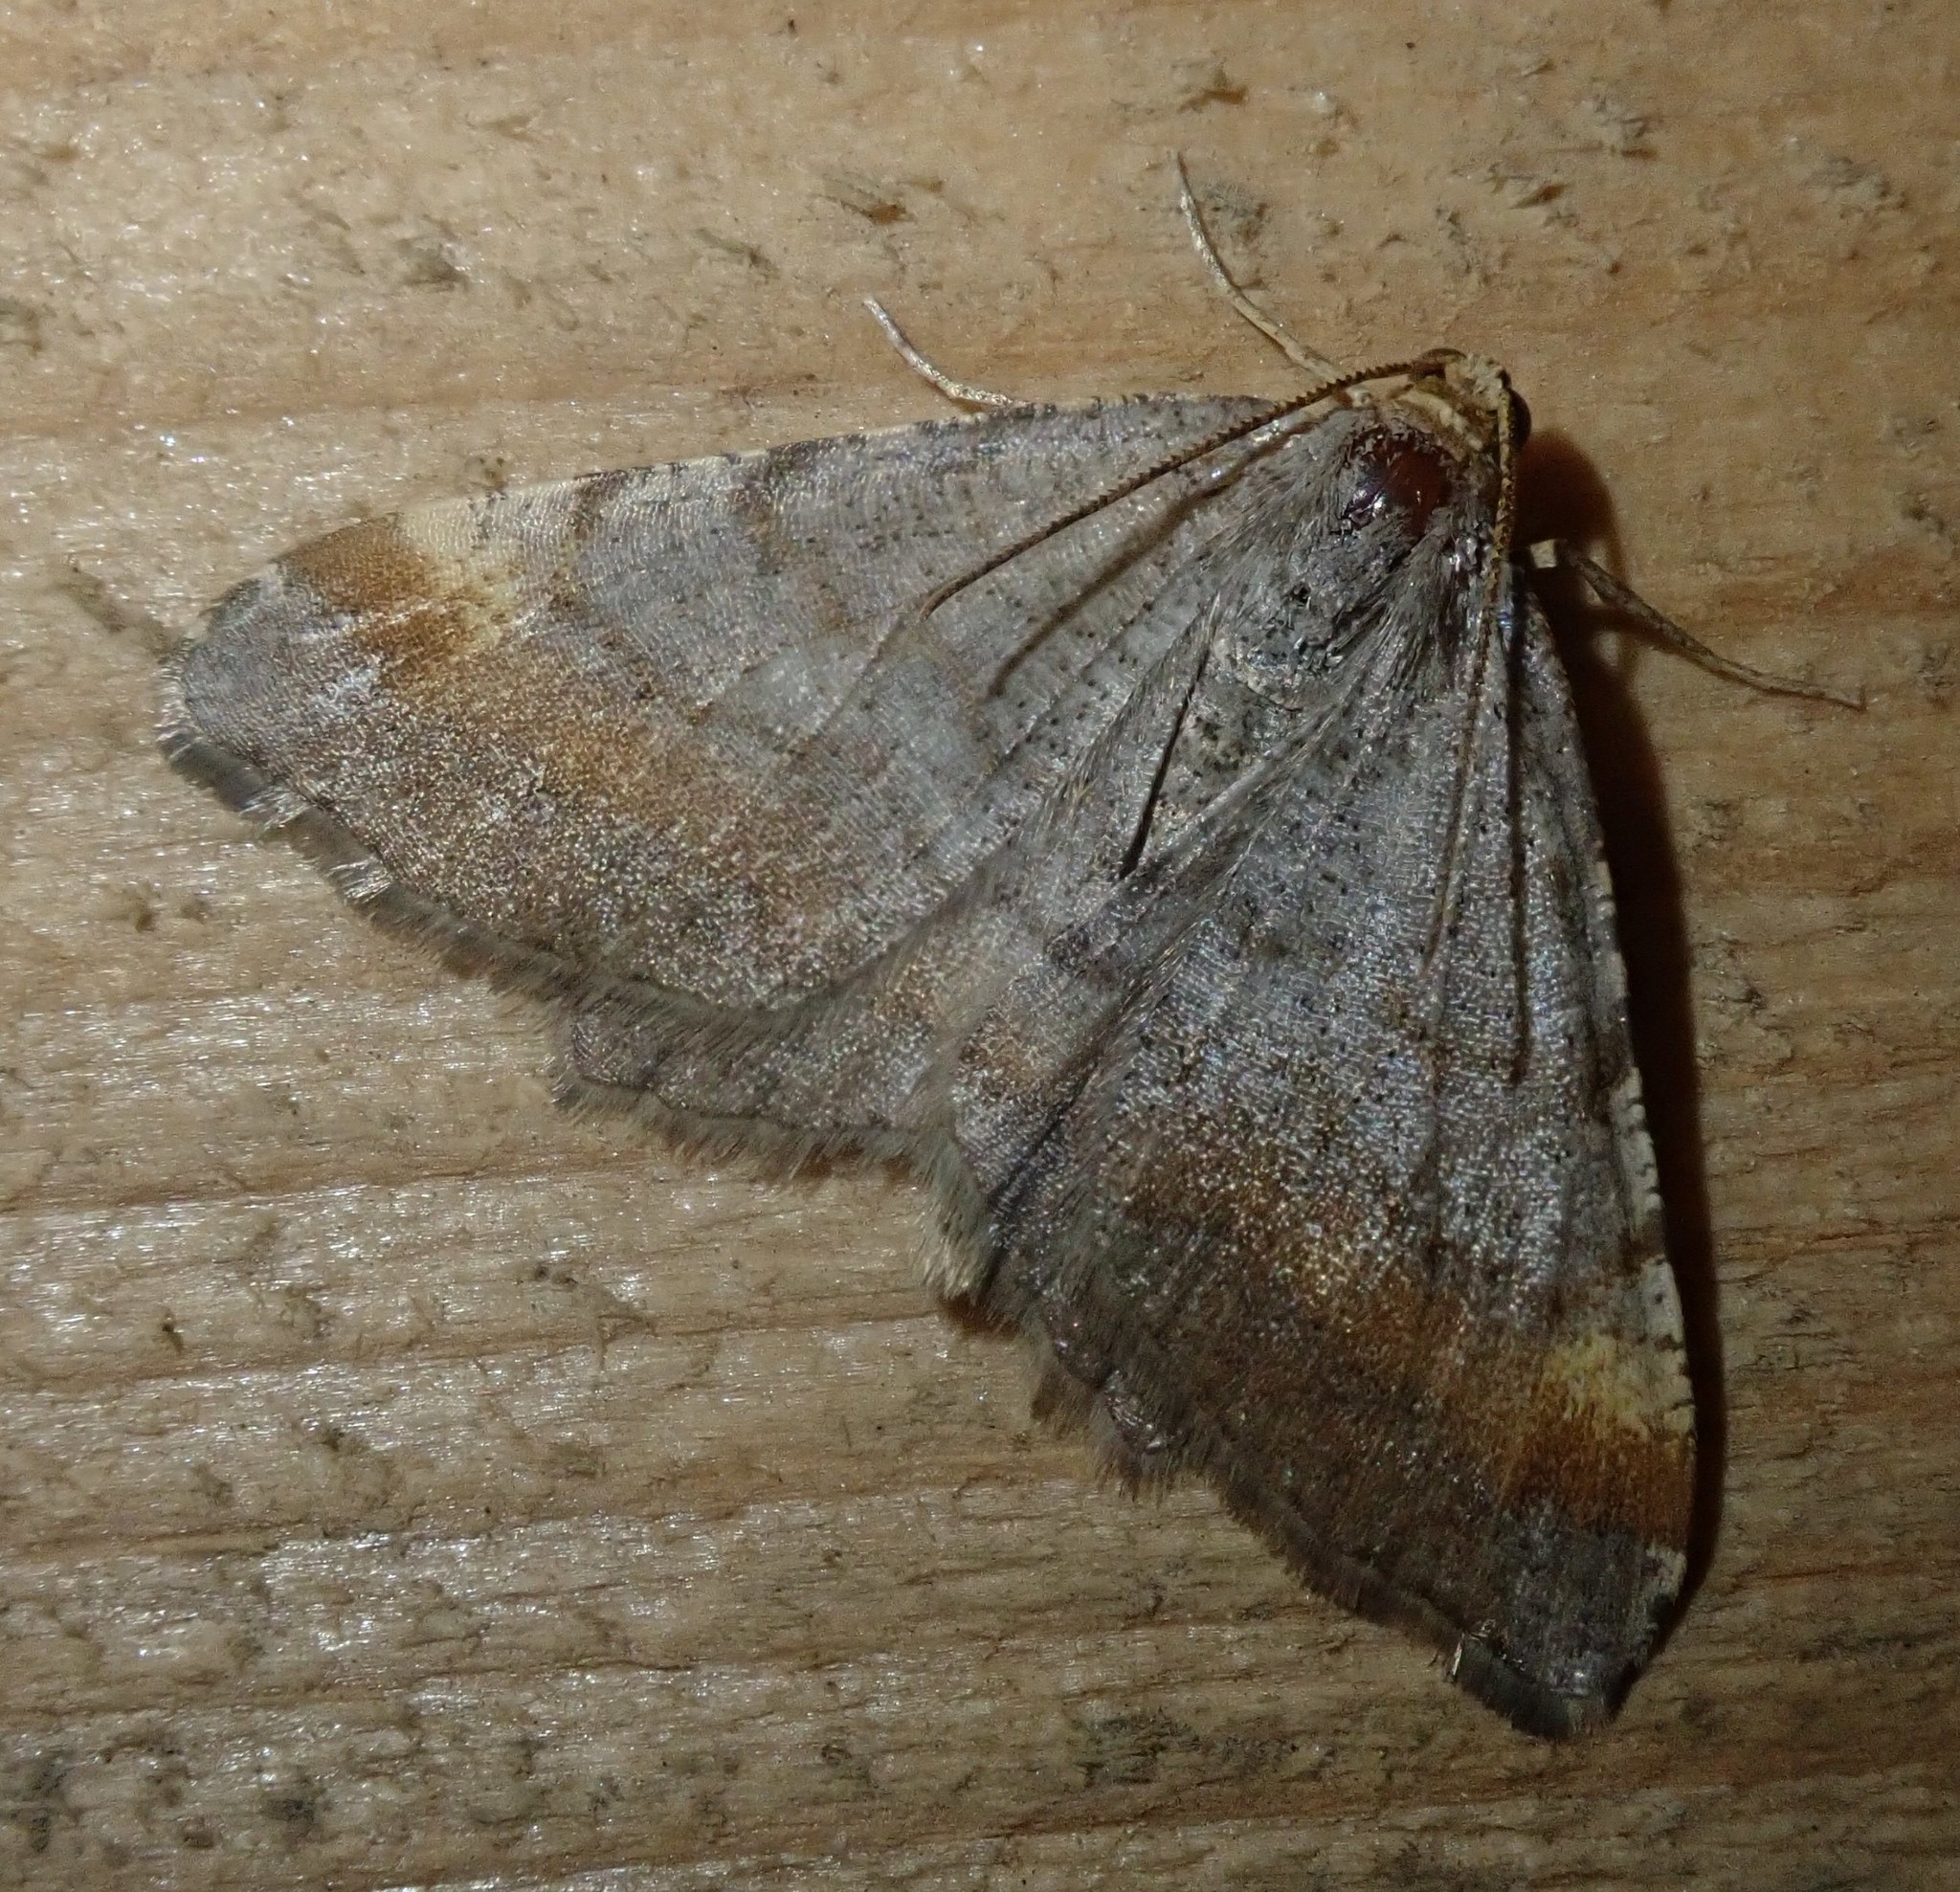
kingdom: Animalia
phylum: Arthropoda
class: Insecta
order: Lepidoptera
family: Geometridae
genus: Macaria
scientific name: Macaria liturata
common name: Tawny-barred angle
